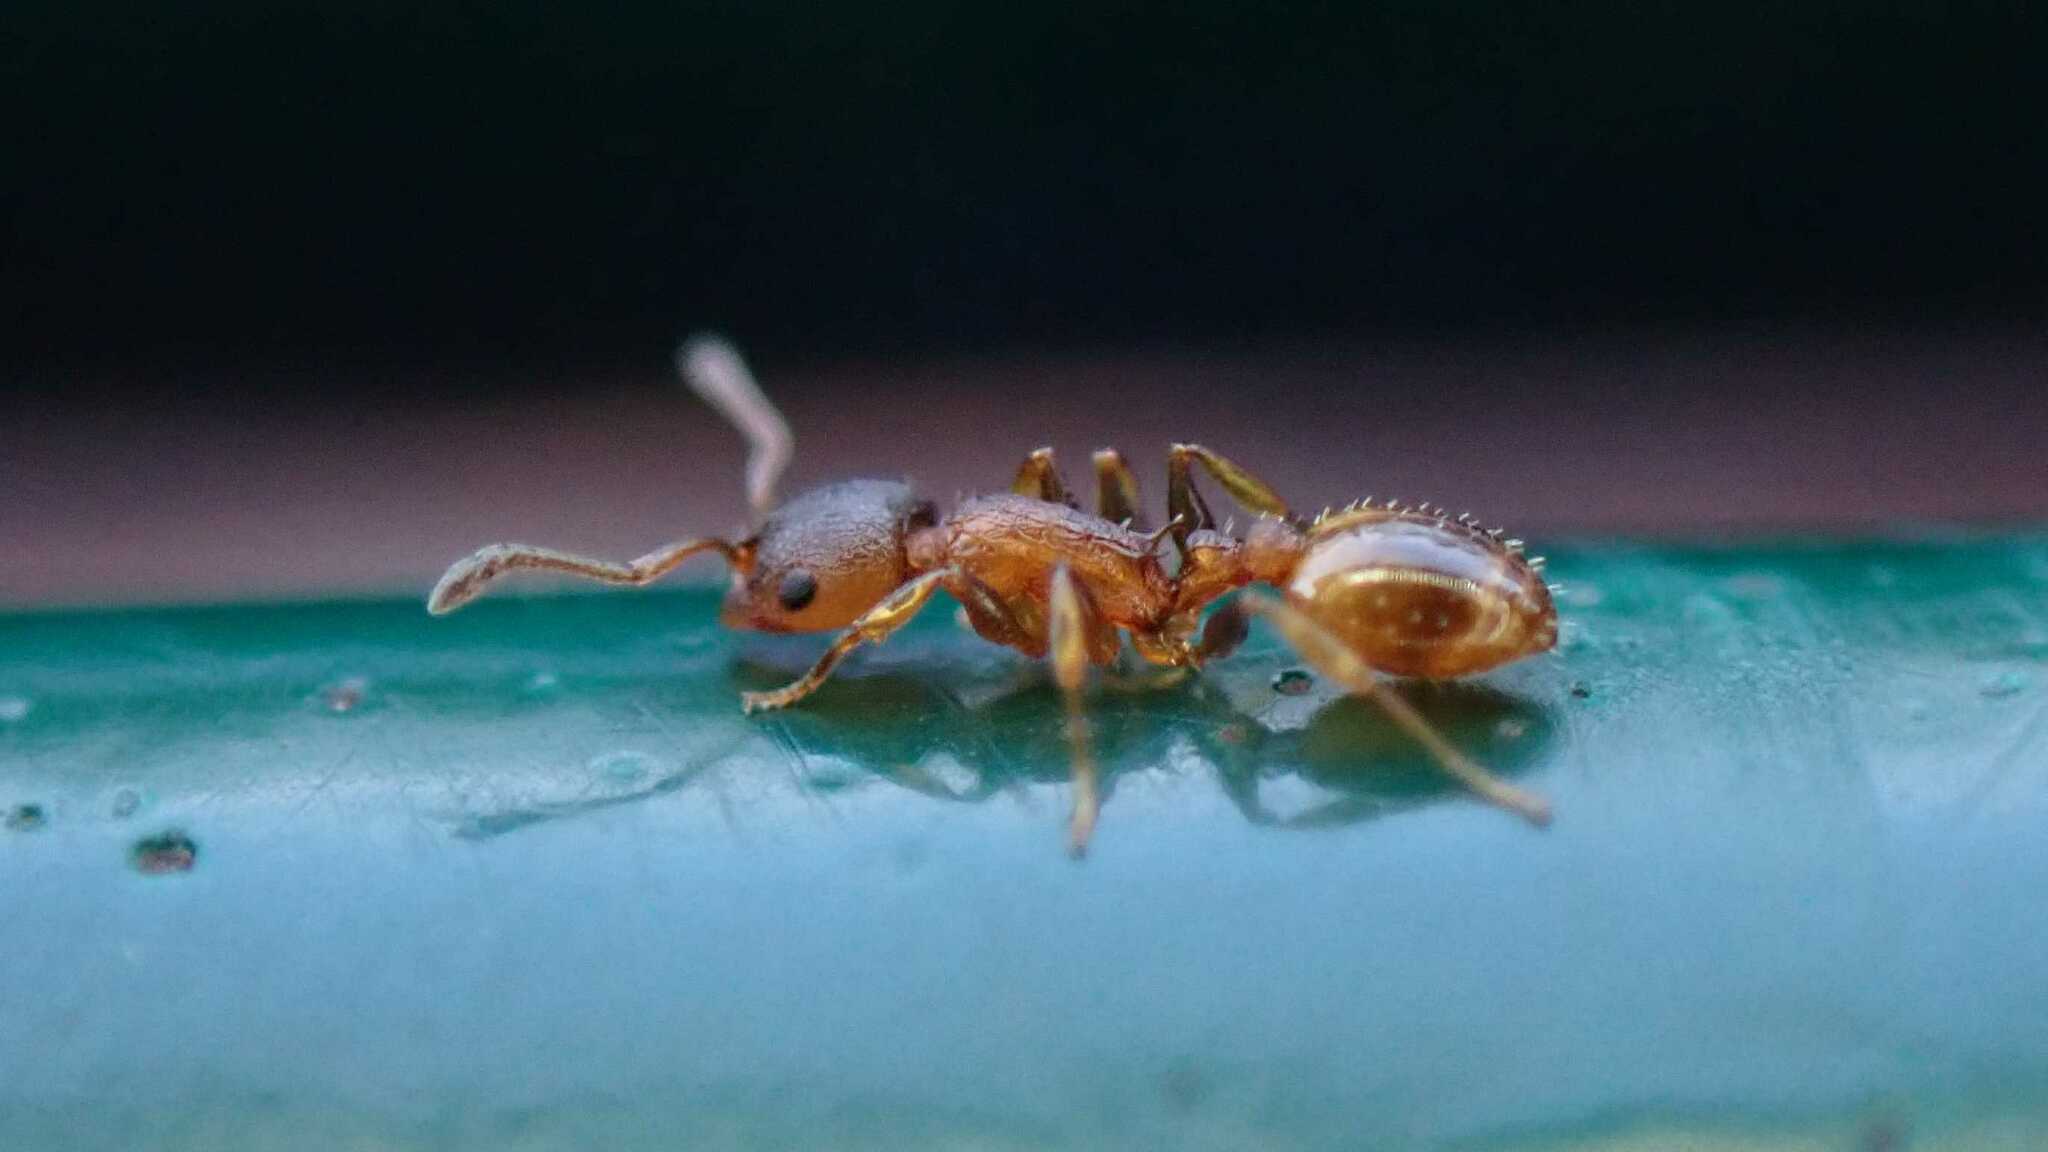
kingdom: Animalia
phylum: Arthropoda
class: Insecta
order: Hymenoptera
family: Formicidae
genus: Temnothorax
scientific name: Temnothorax
